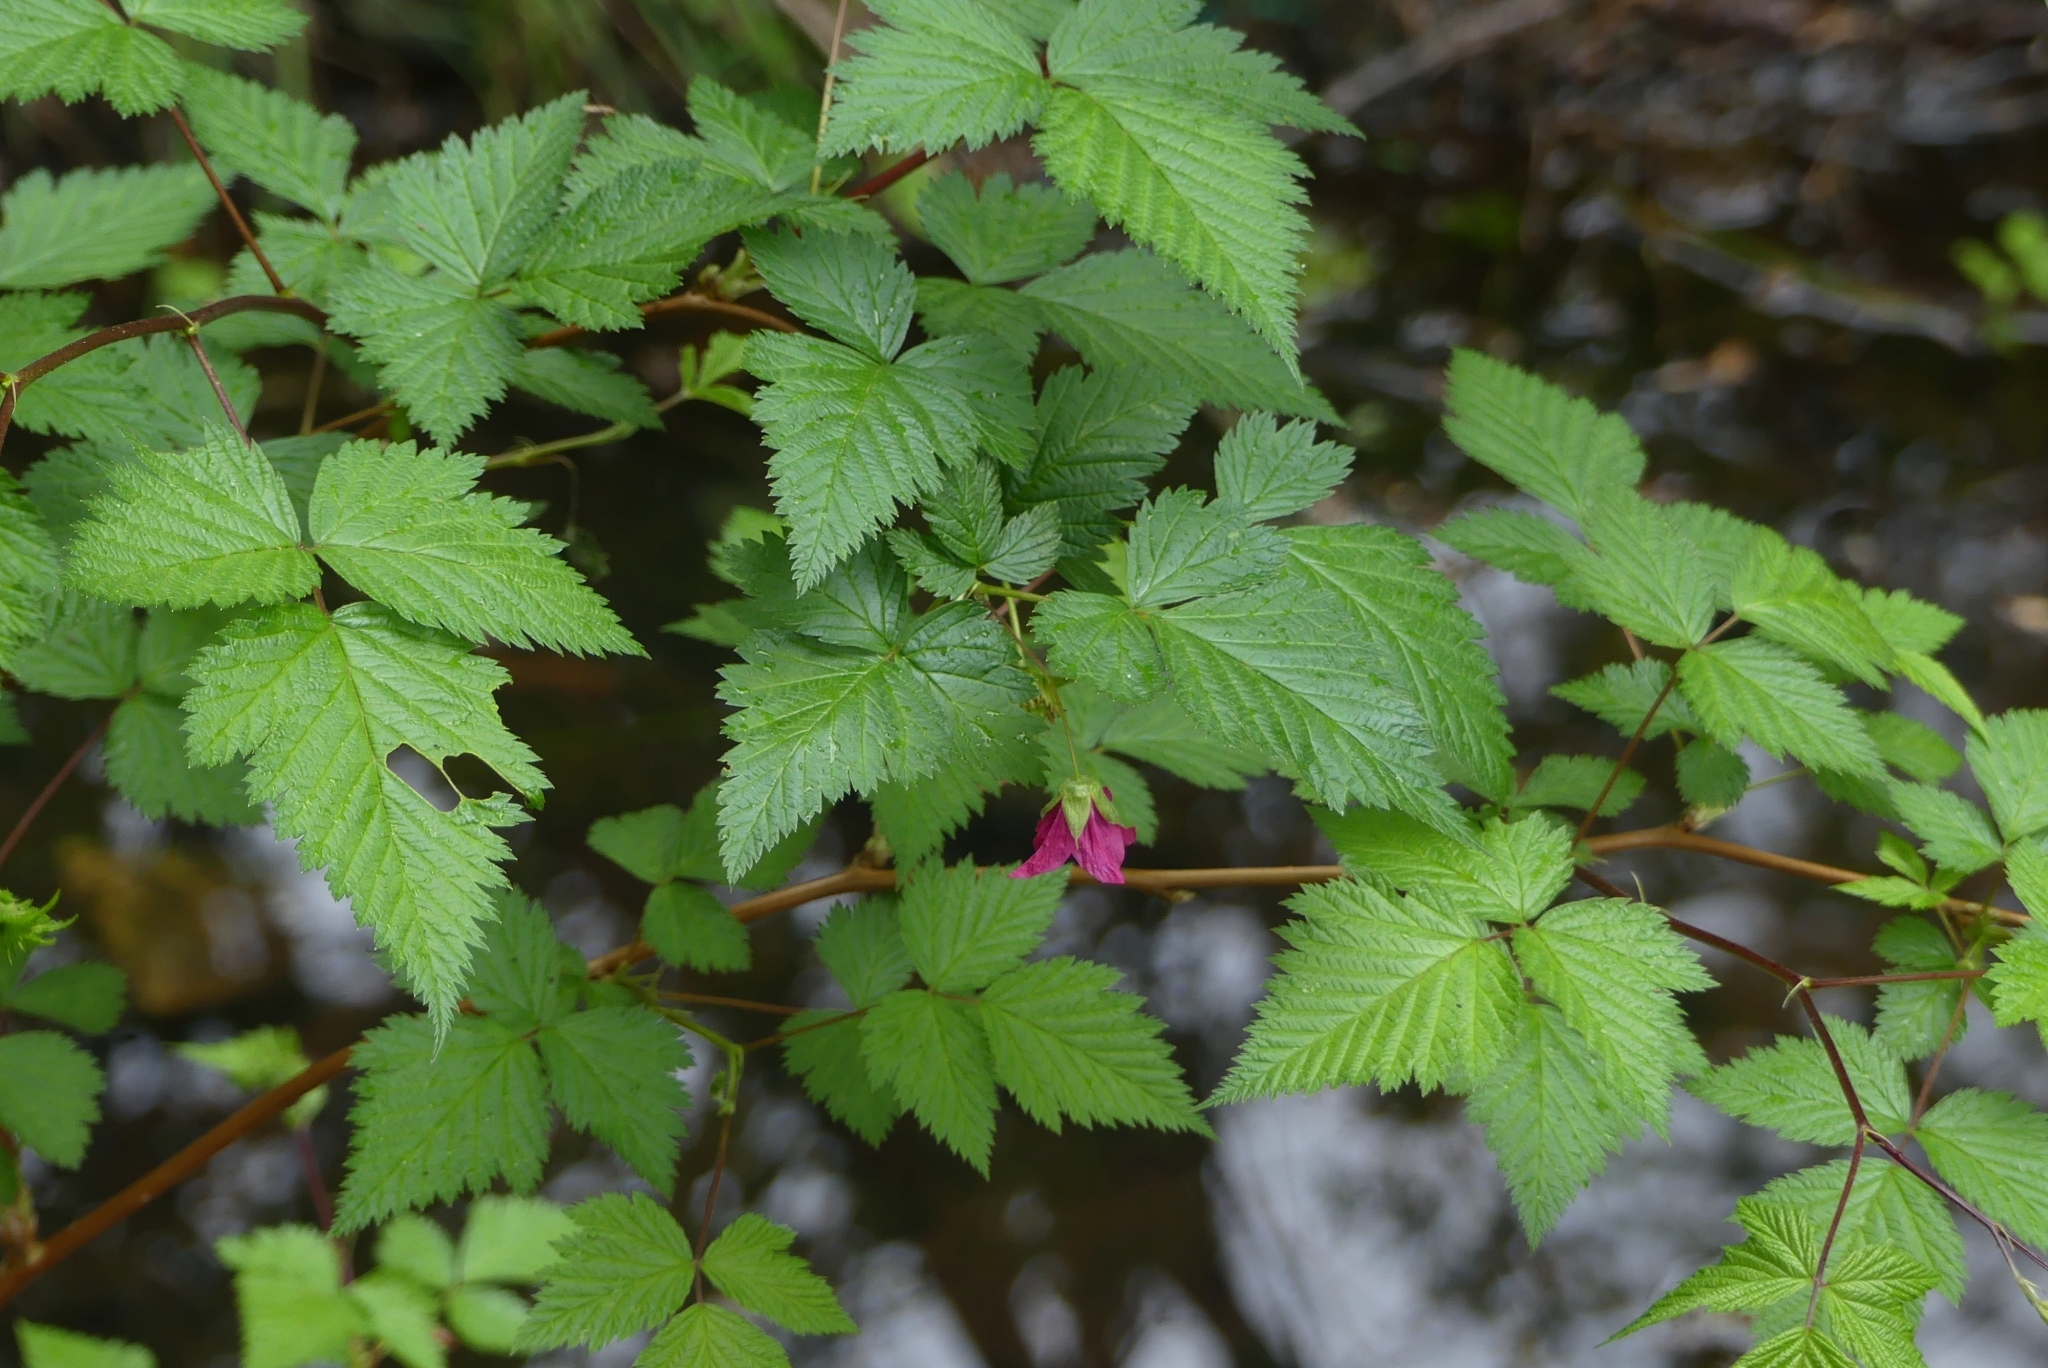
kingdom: Plantae
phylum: Tracheophyta
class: Magnoliopsida
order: Rosales
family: Rosaceae
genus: Rubus
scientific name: Rubus spectabilis
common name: Salmonberry
